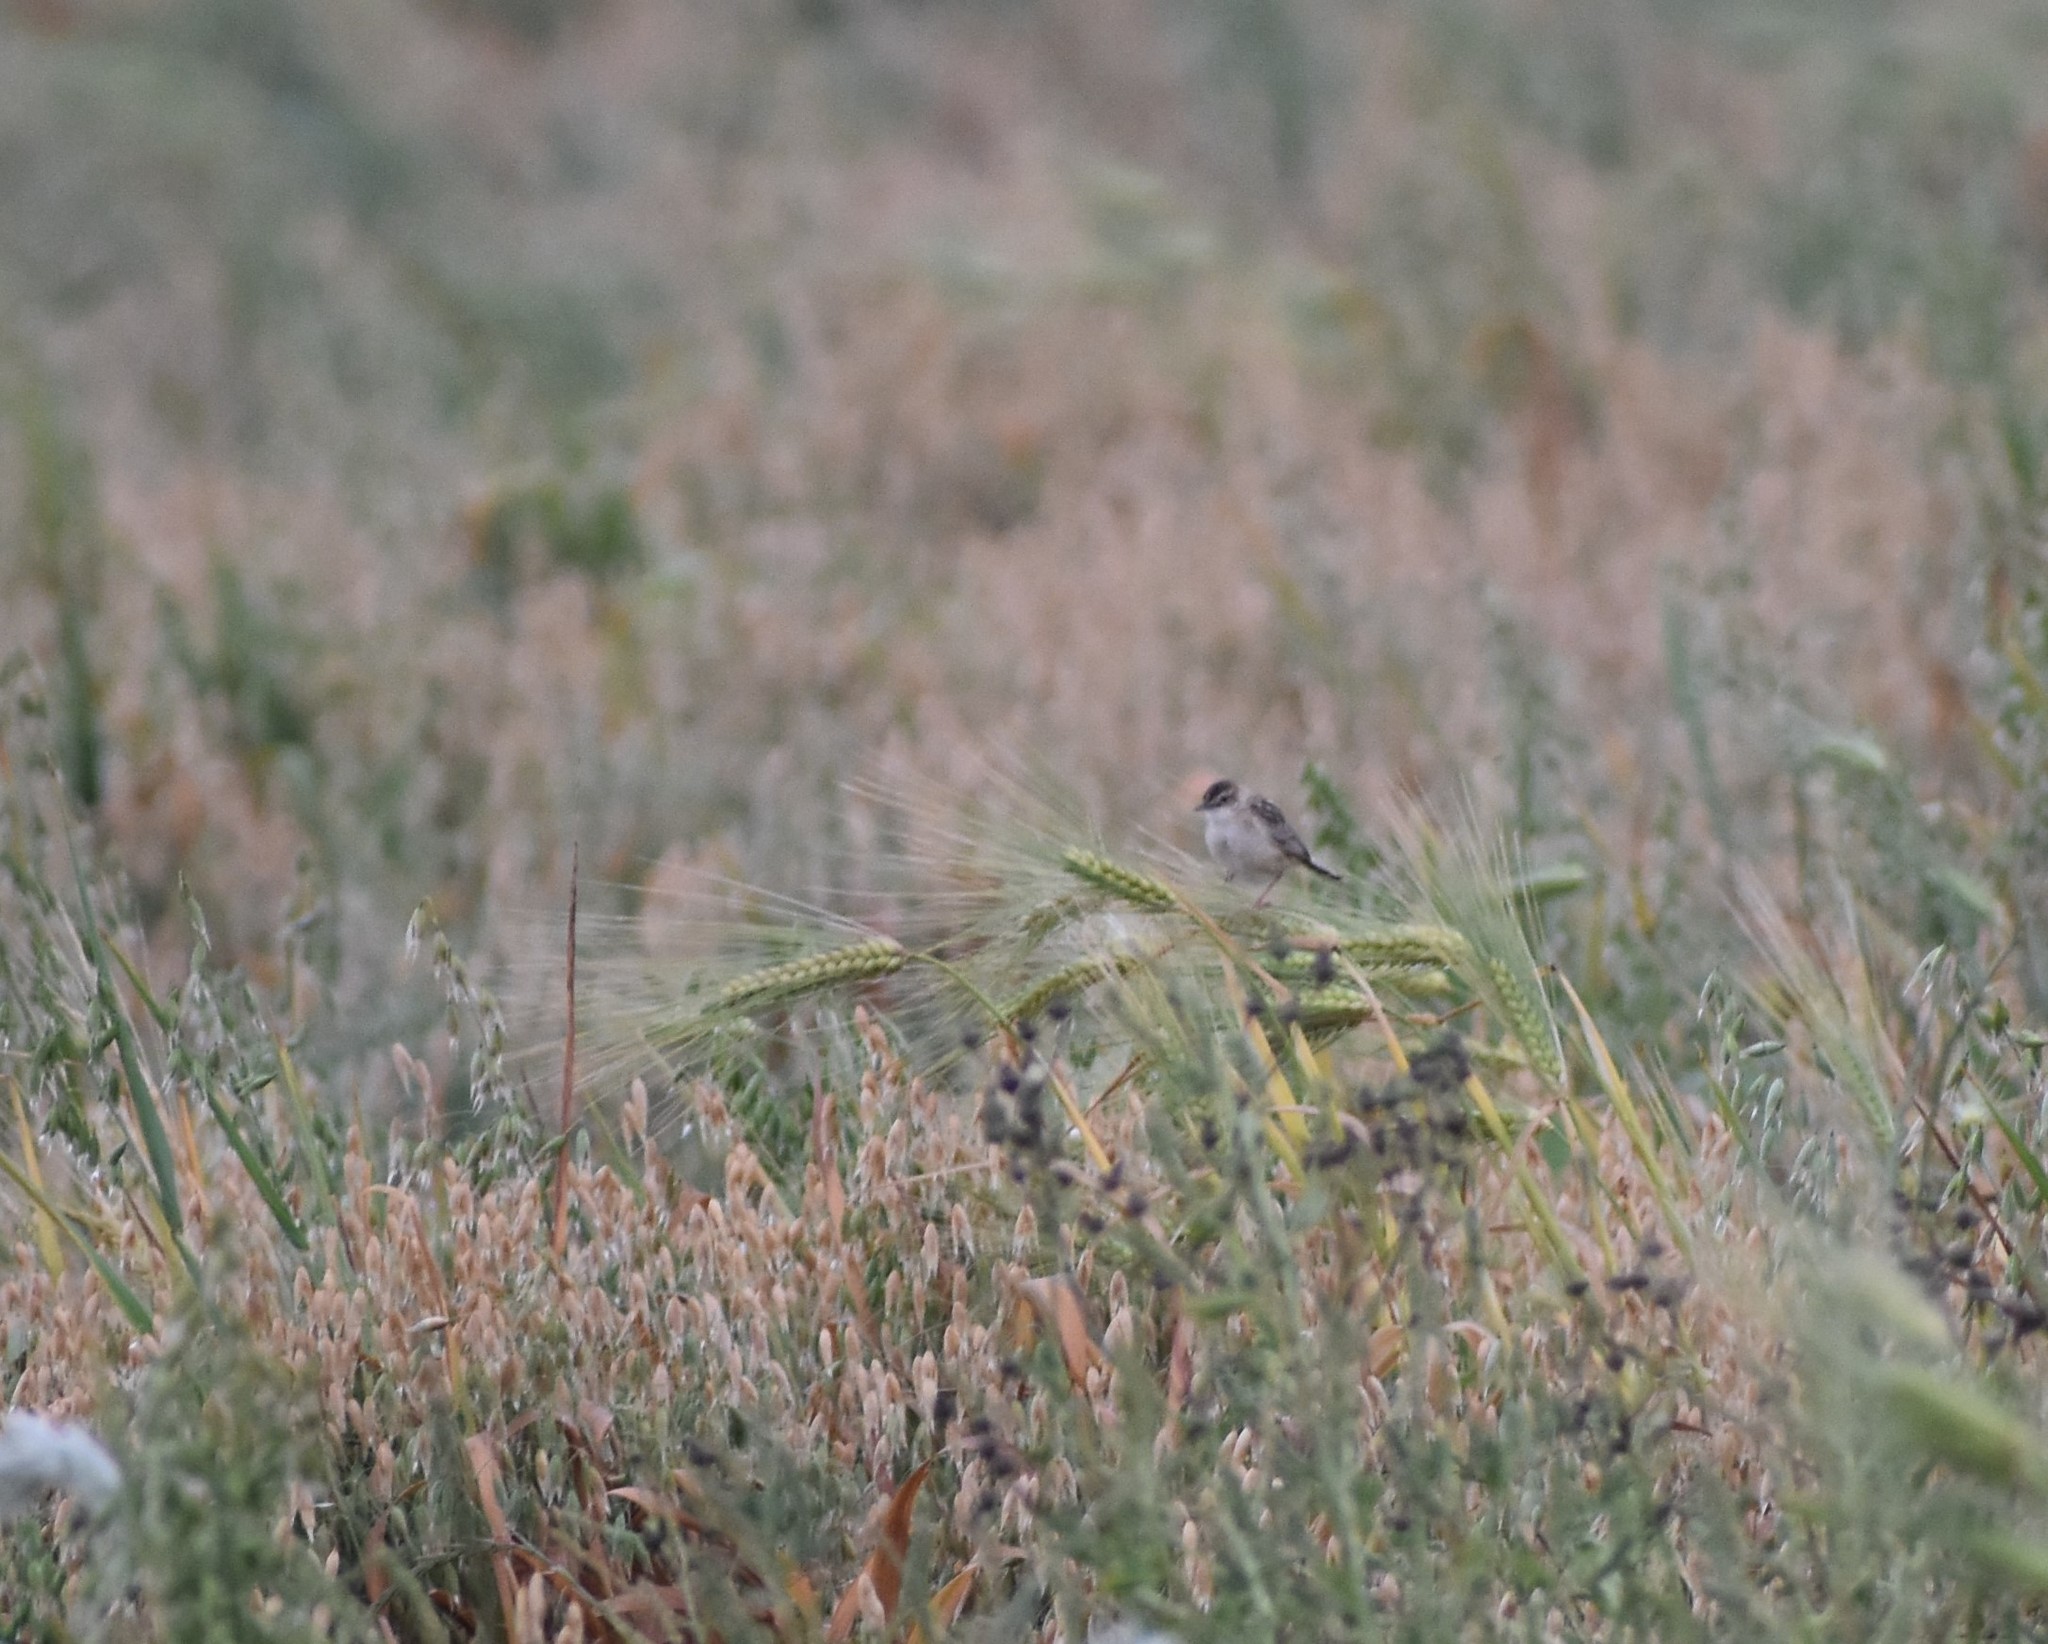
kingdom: Animalia
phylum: Chordata
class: Aves
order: Passeriformes
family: Cisticolidae
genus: Cisticola
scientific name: Cisticola juncidis
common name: Zitting cisticola
